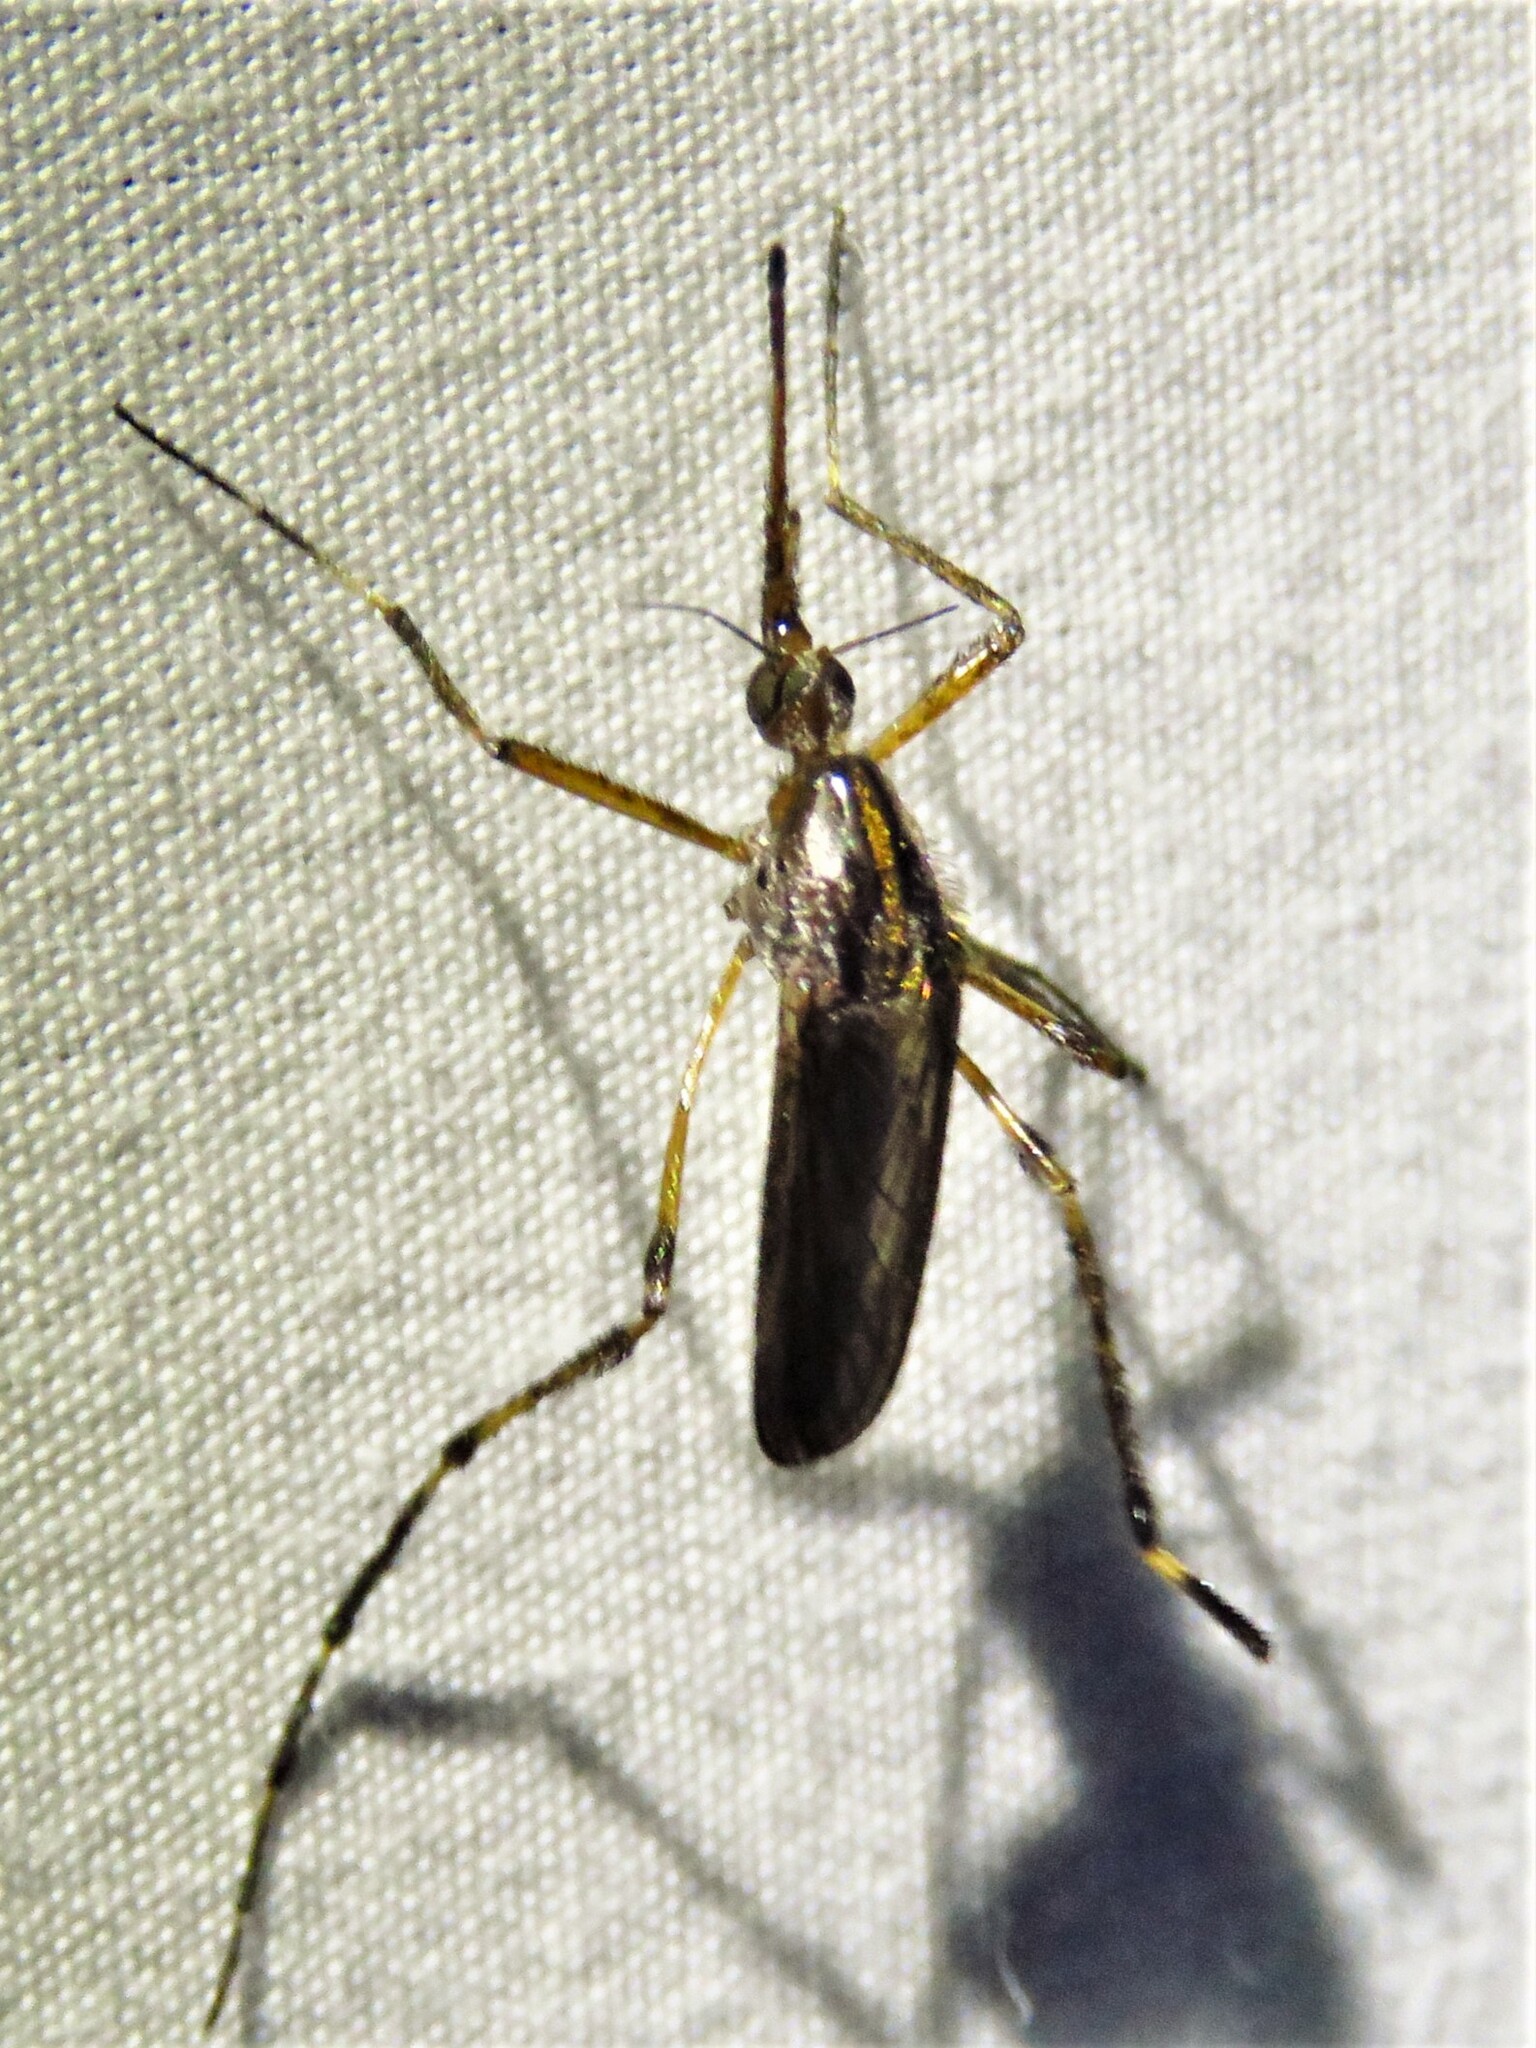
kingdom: Animalia
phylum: Arthropoda
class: Insecta
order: Diptera
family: Culicidae
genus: Psorophora
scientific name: Psorophora ciliata
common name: Gallinipper
